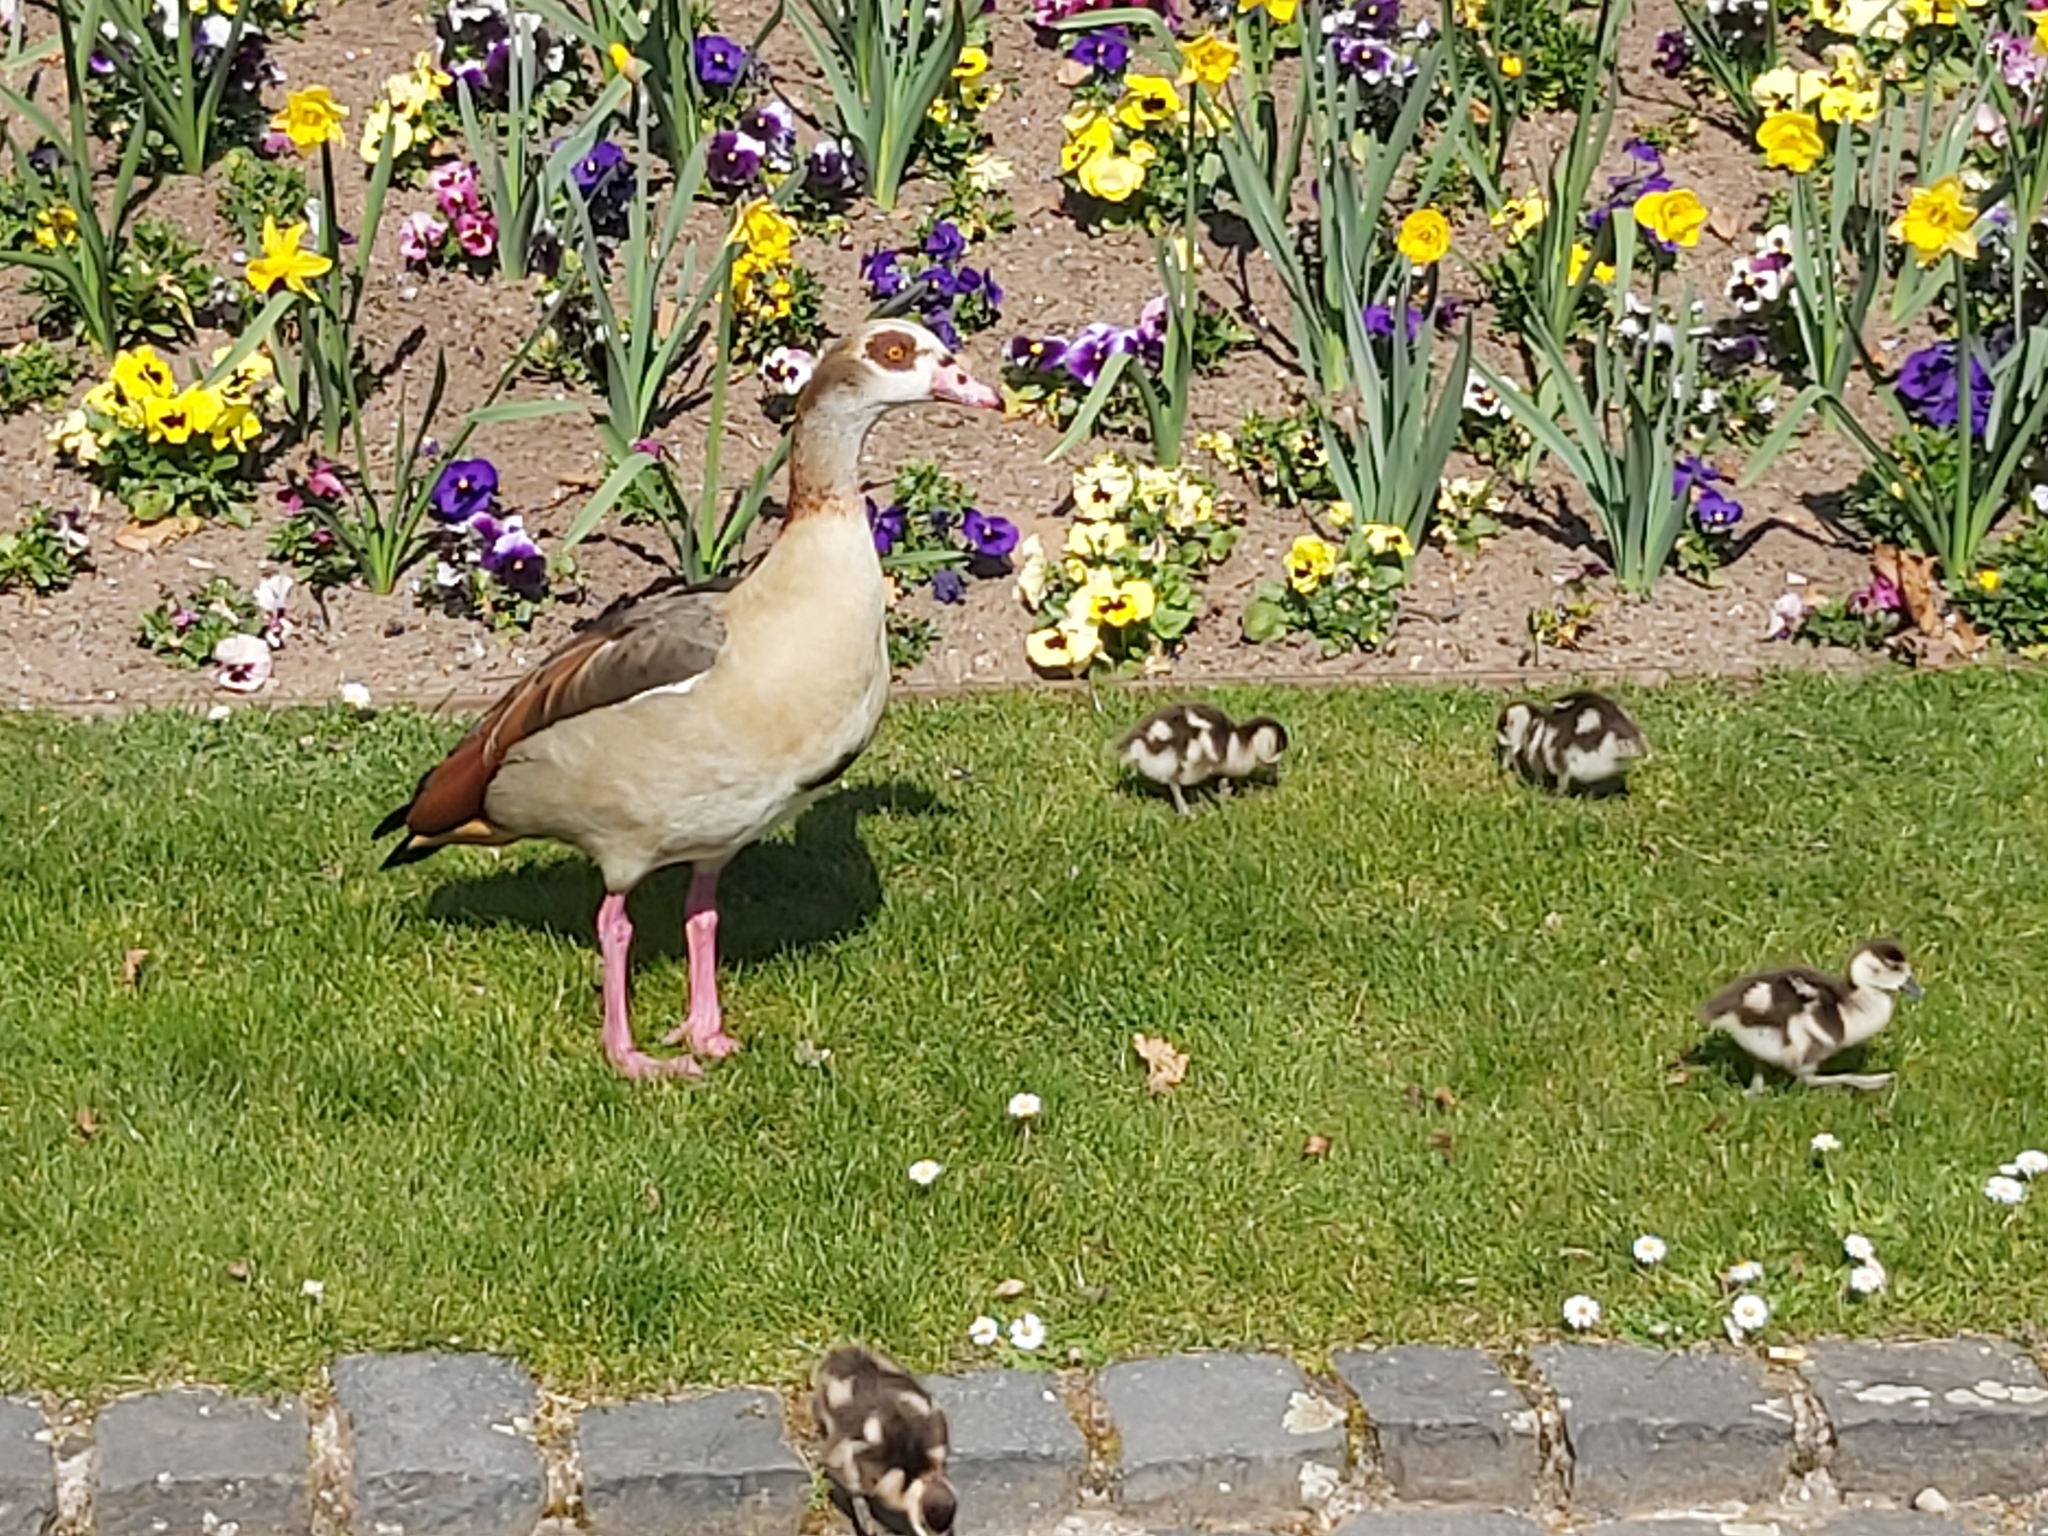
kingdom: Animalia
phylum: Chordata
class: Aves
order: Anseriformes
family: Anatidae
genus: Alopochen
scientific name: Alopochen aegyptiaca
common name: Egyptian goose
